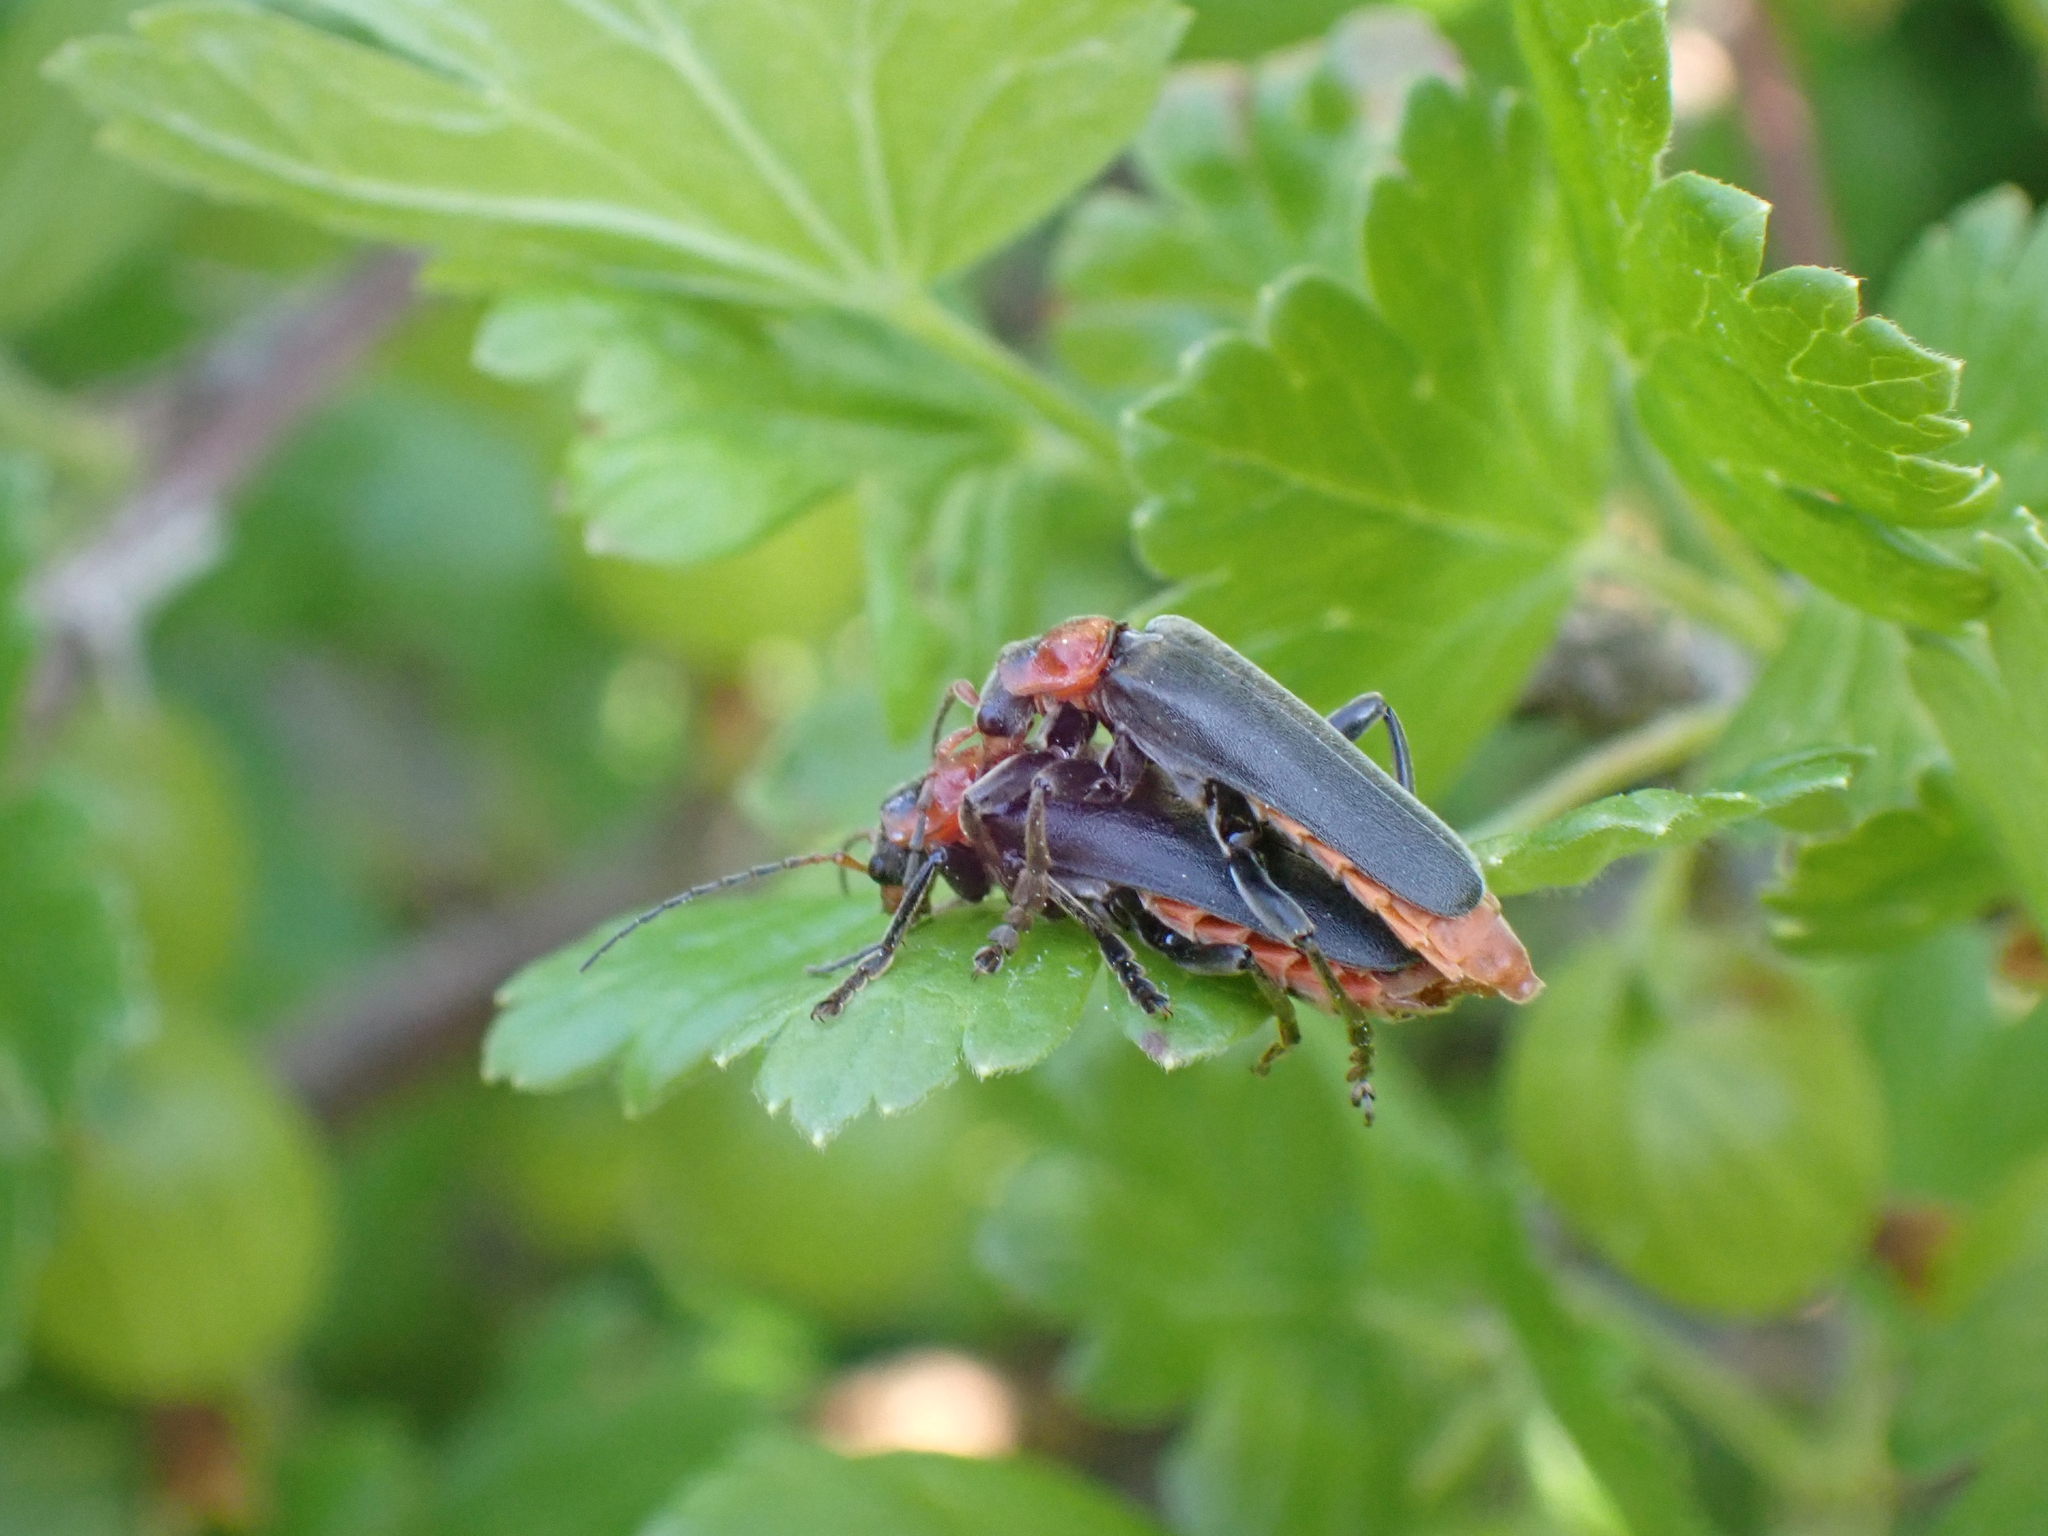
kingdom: Animalia
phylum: Arthropoda
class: Insecta
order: Coleoptera
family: Cantharidae
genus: Cantharis
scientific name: Cantharis fusca
